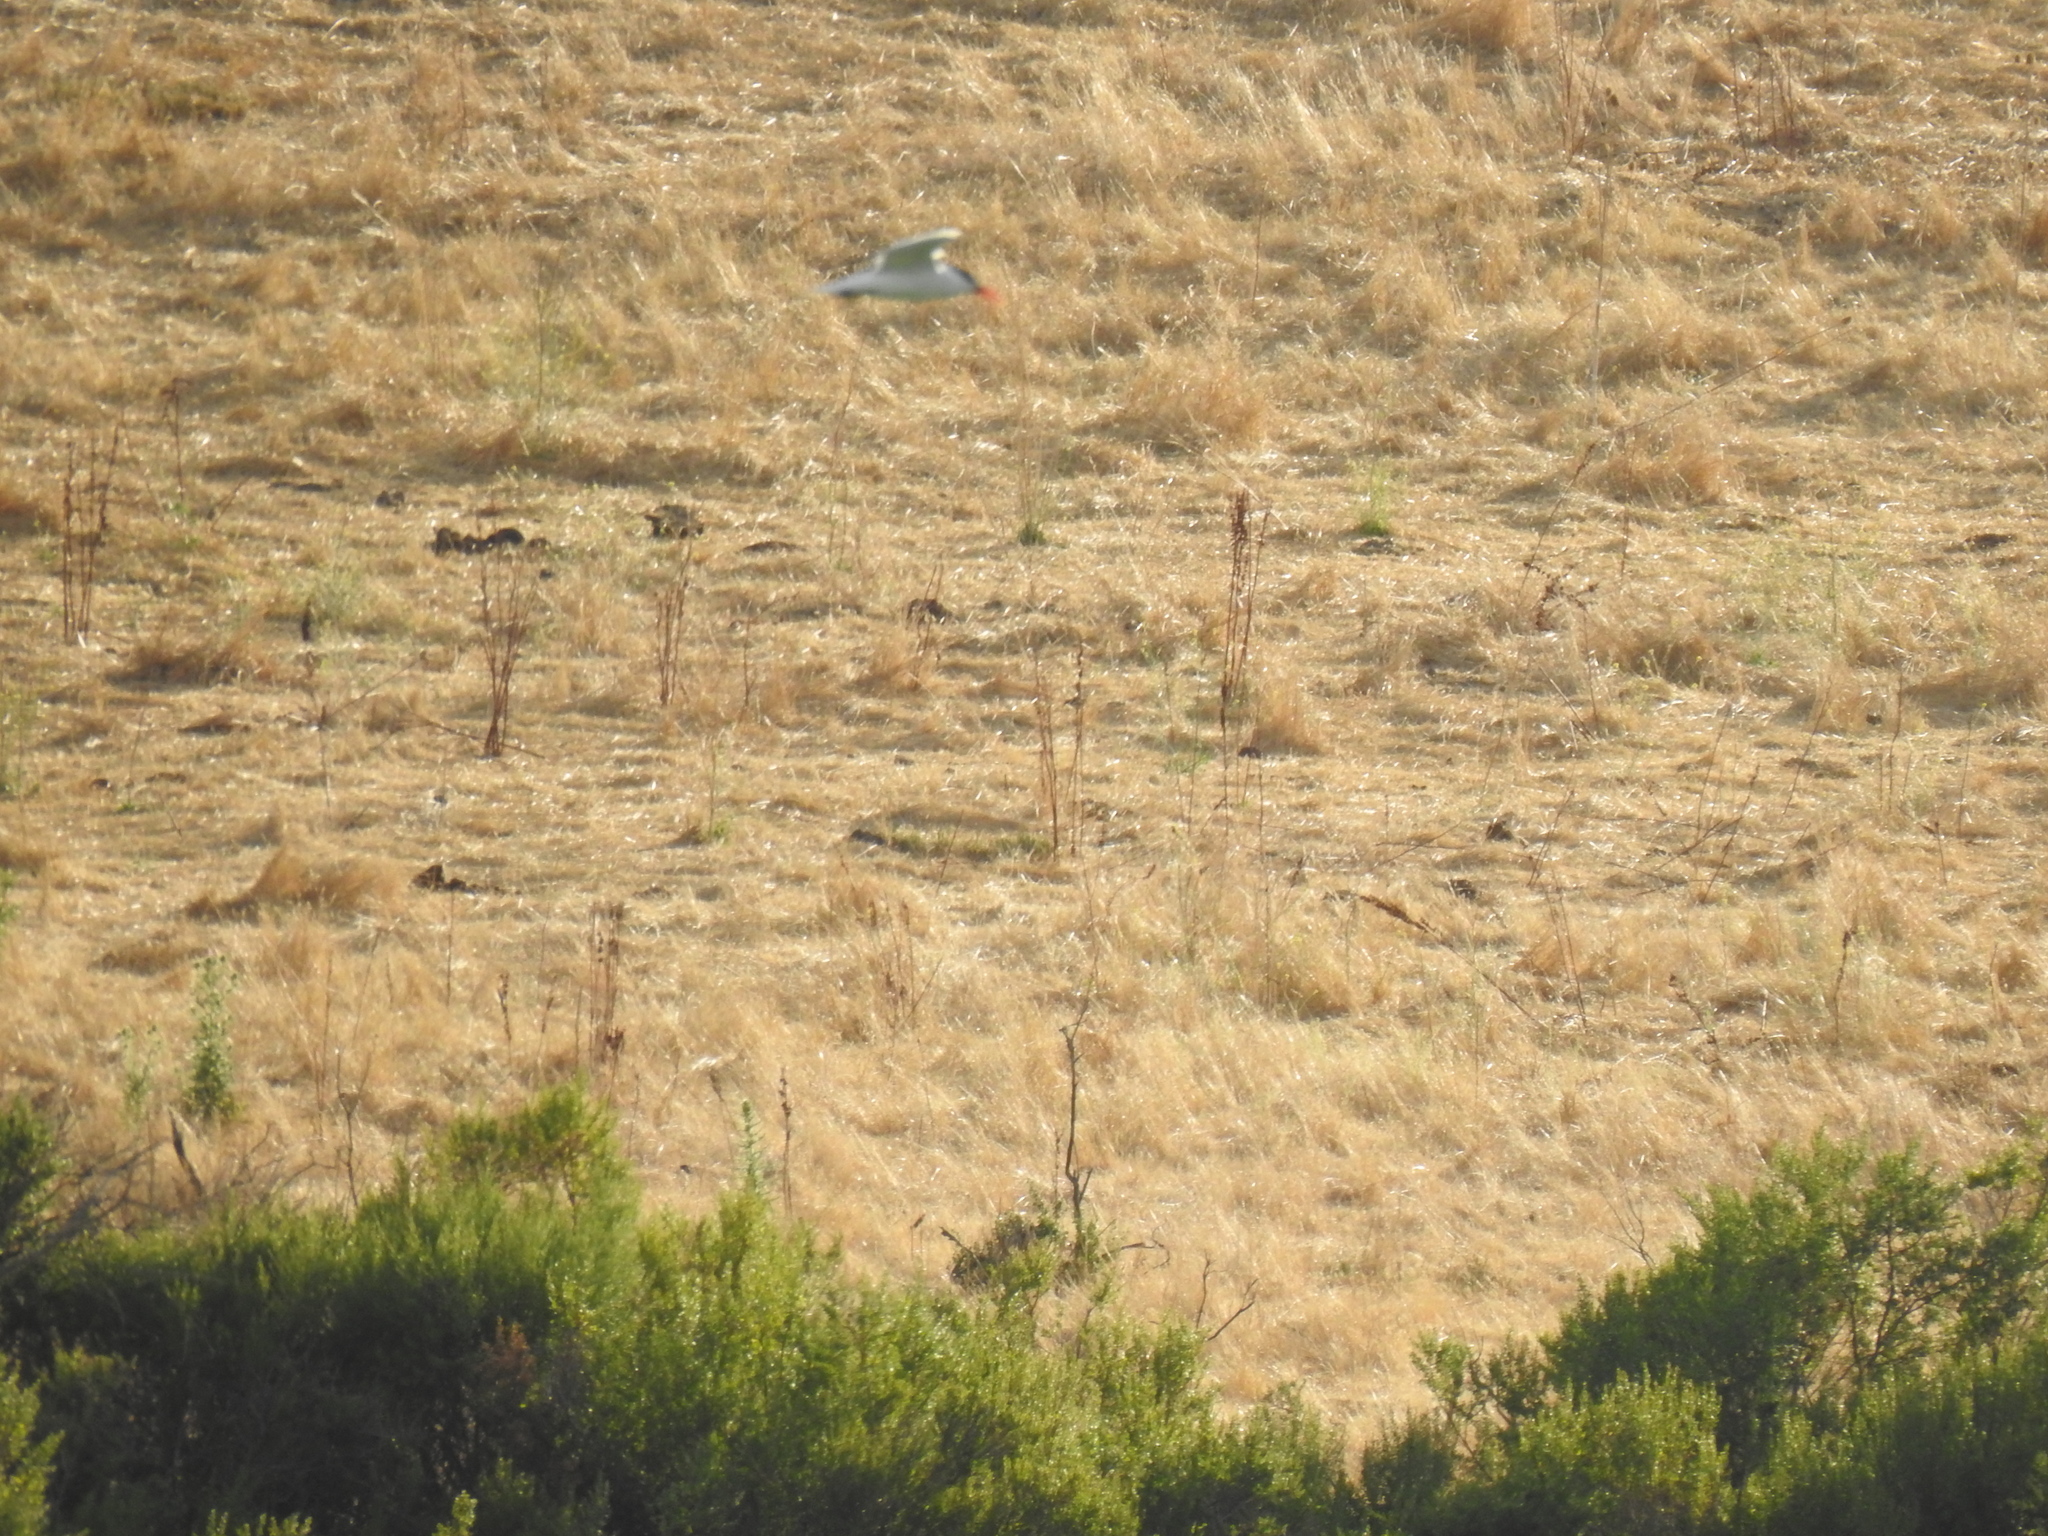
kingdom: Animalia
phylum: Chordata
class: Aves
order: Charadriiformes
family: Laridae
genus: Hydroprogne
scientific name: Hydroprogne caspia
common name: Caspian tern
